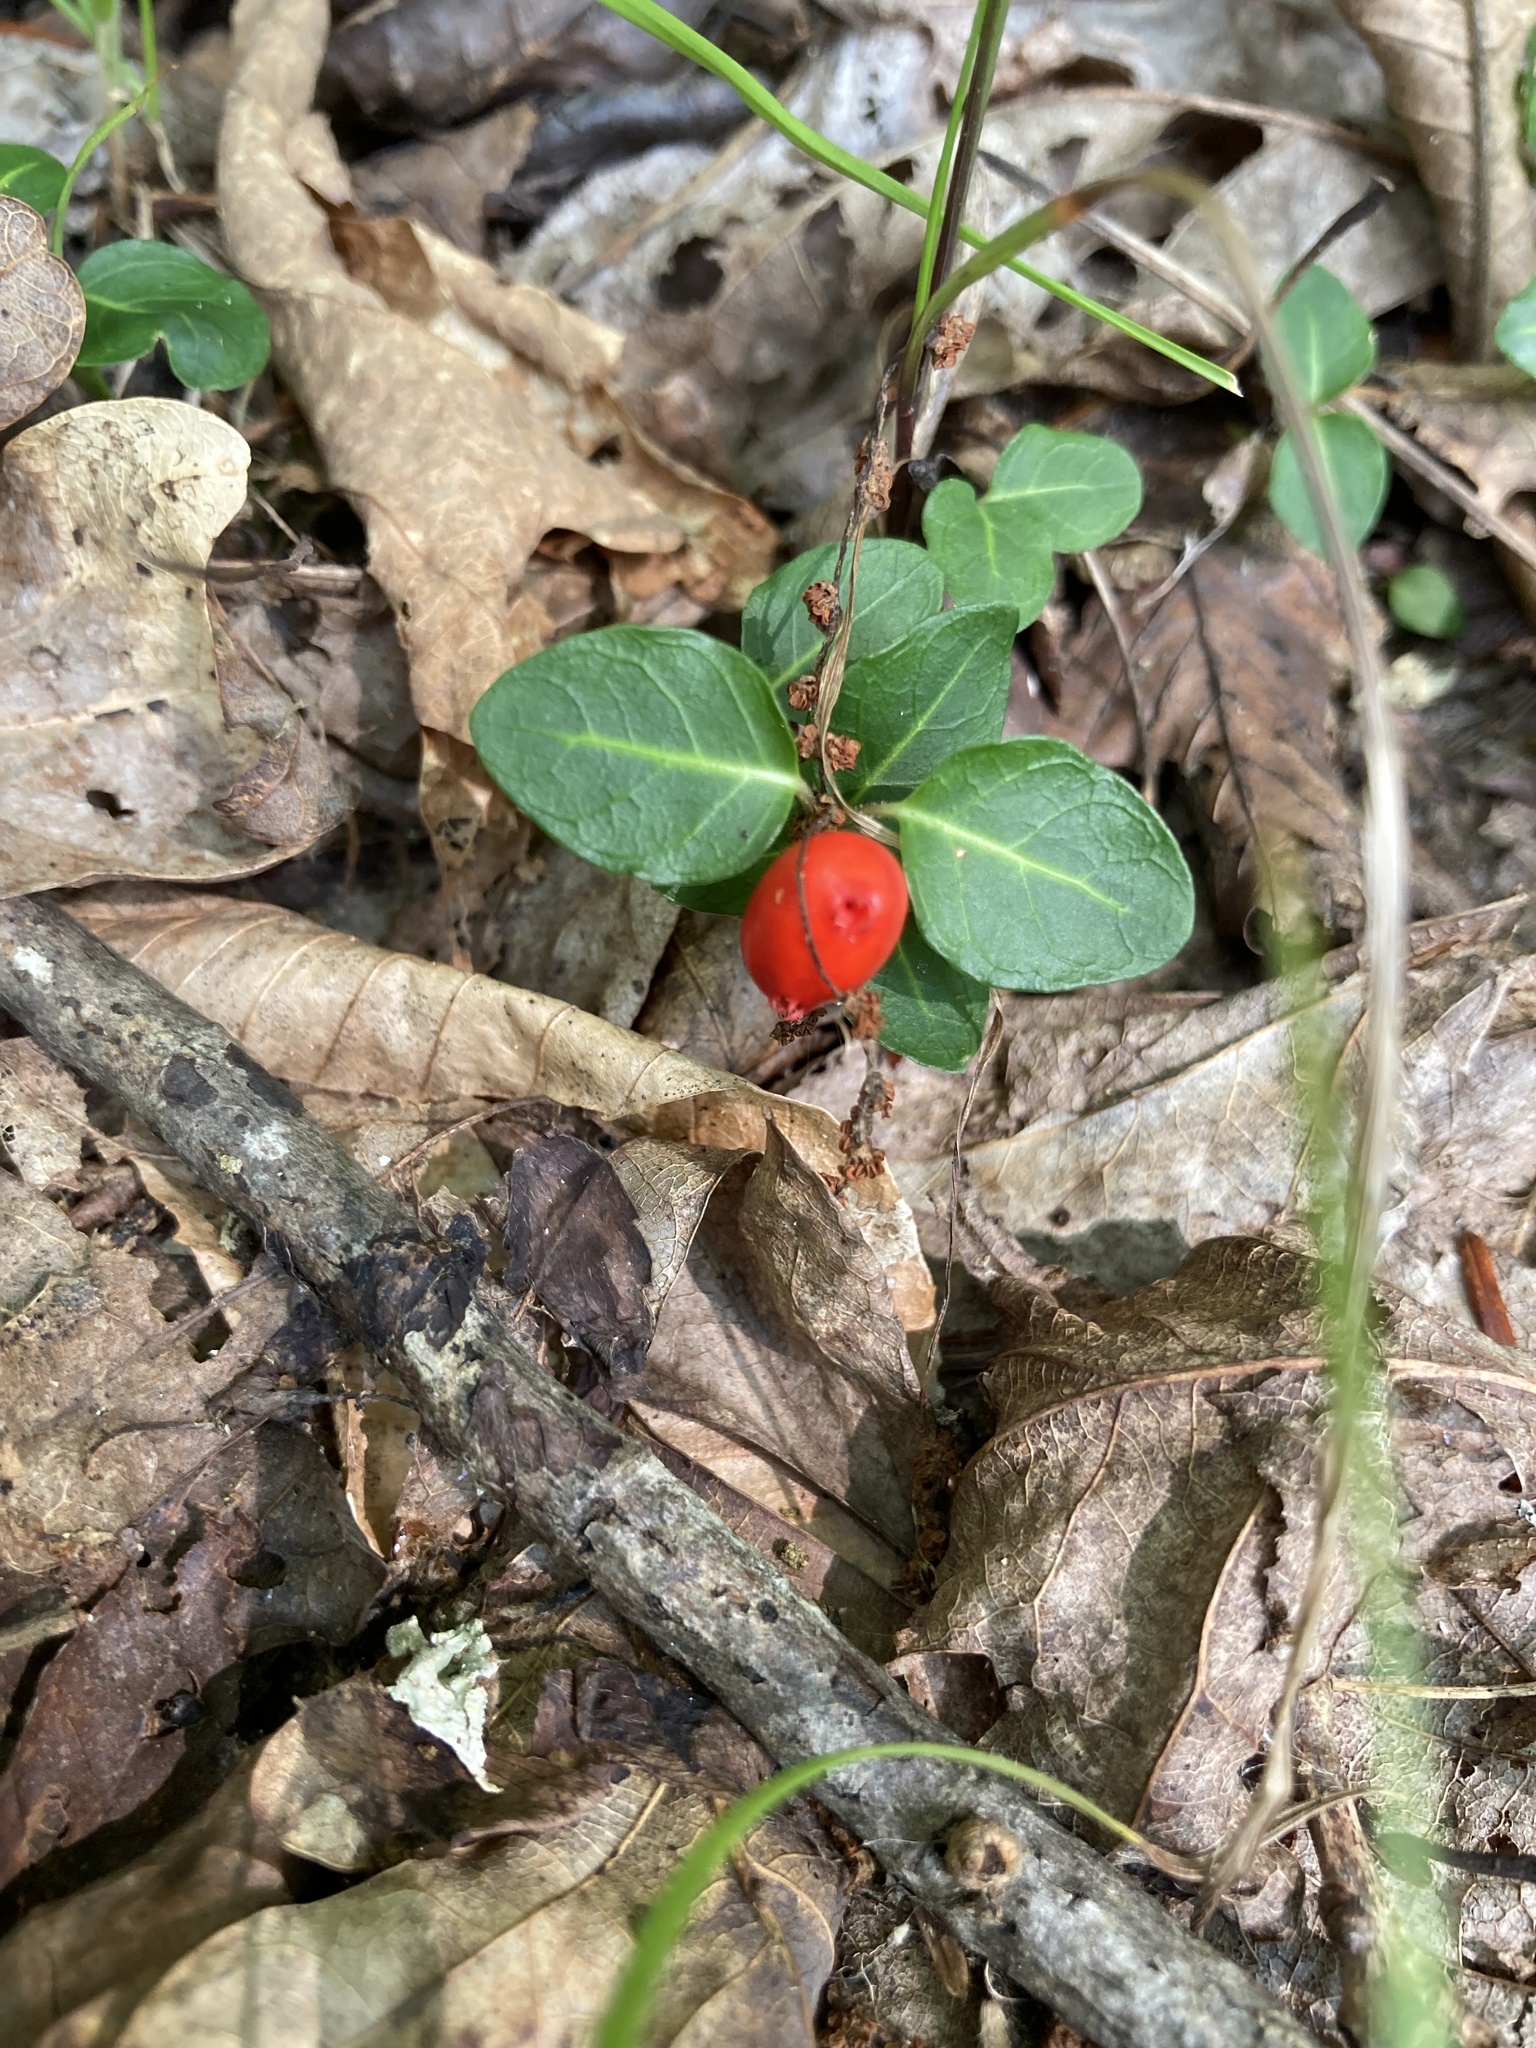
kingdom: Plantae
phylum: Tracheophyta
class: Magnoliopsida
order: Gentianales
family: Rubiaceae
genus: Mitchella
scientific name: Mitchella repens
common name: Partridge-berry
